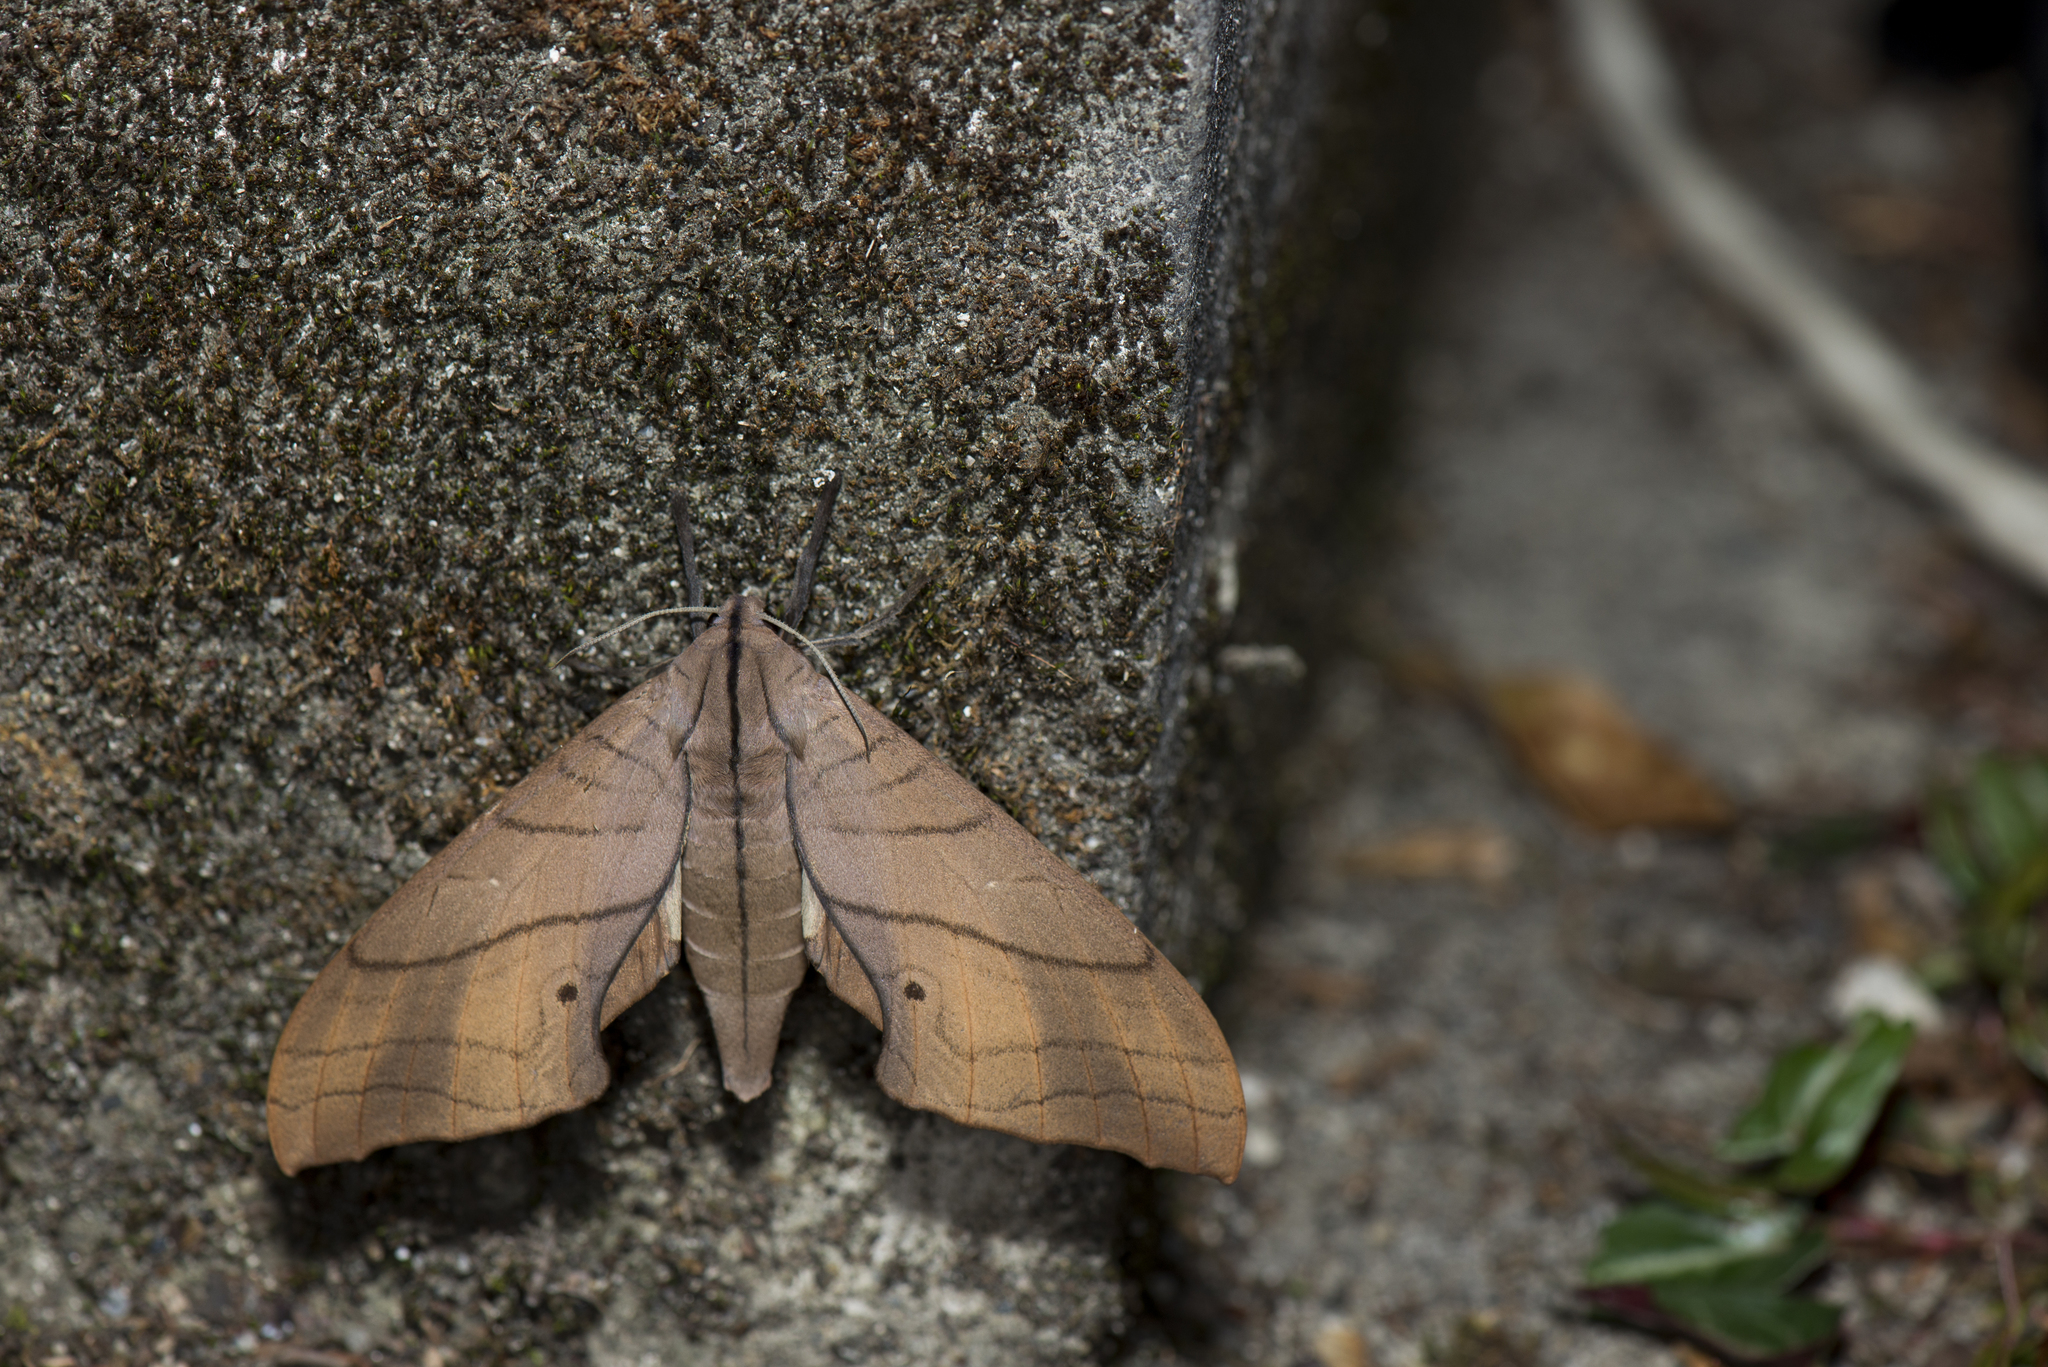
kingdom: Animalia
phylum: Arthropoda
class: Insecta
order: Lepidoptera
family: Sphingidae
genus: Marumba
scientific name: Marumba cristata
